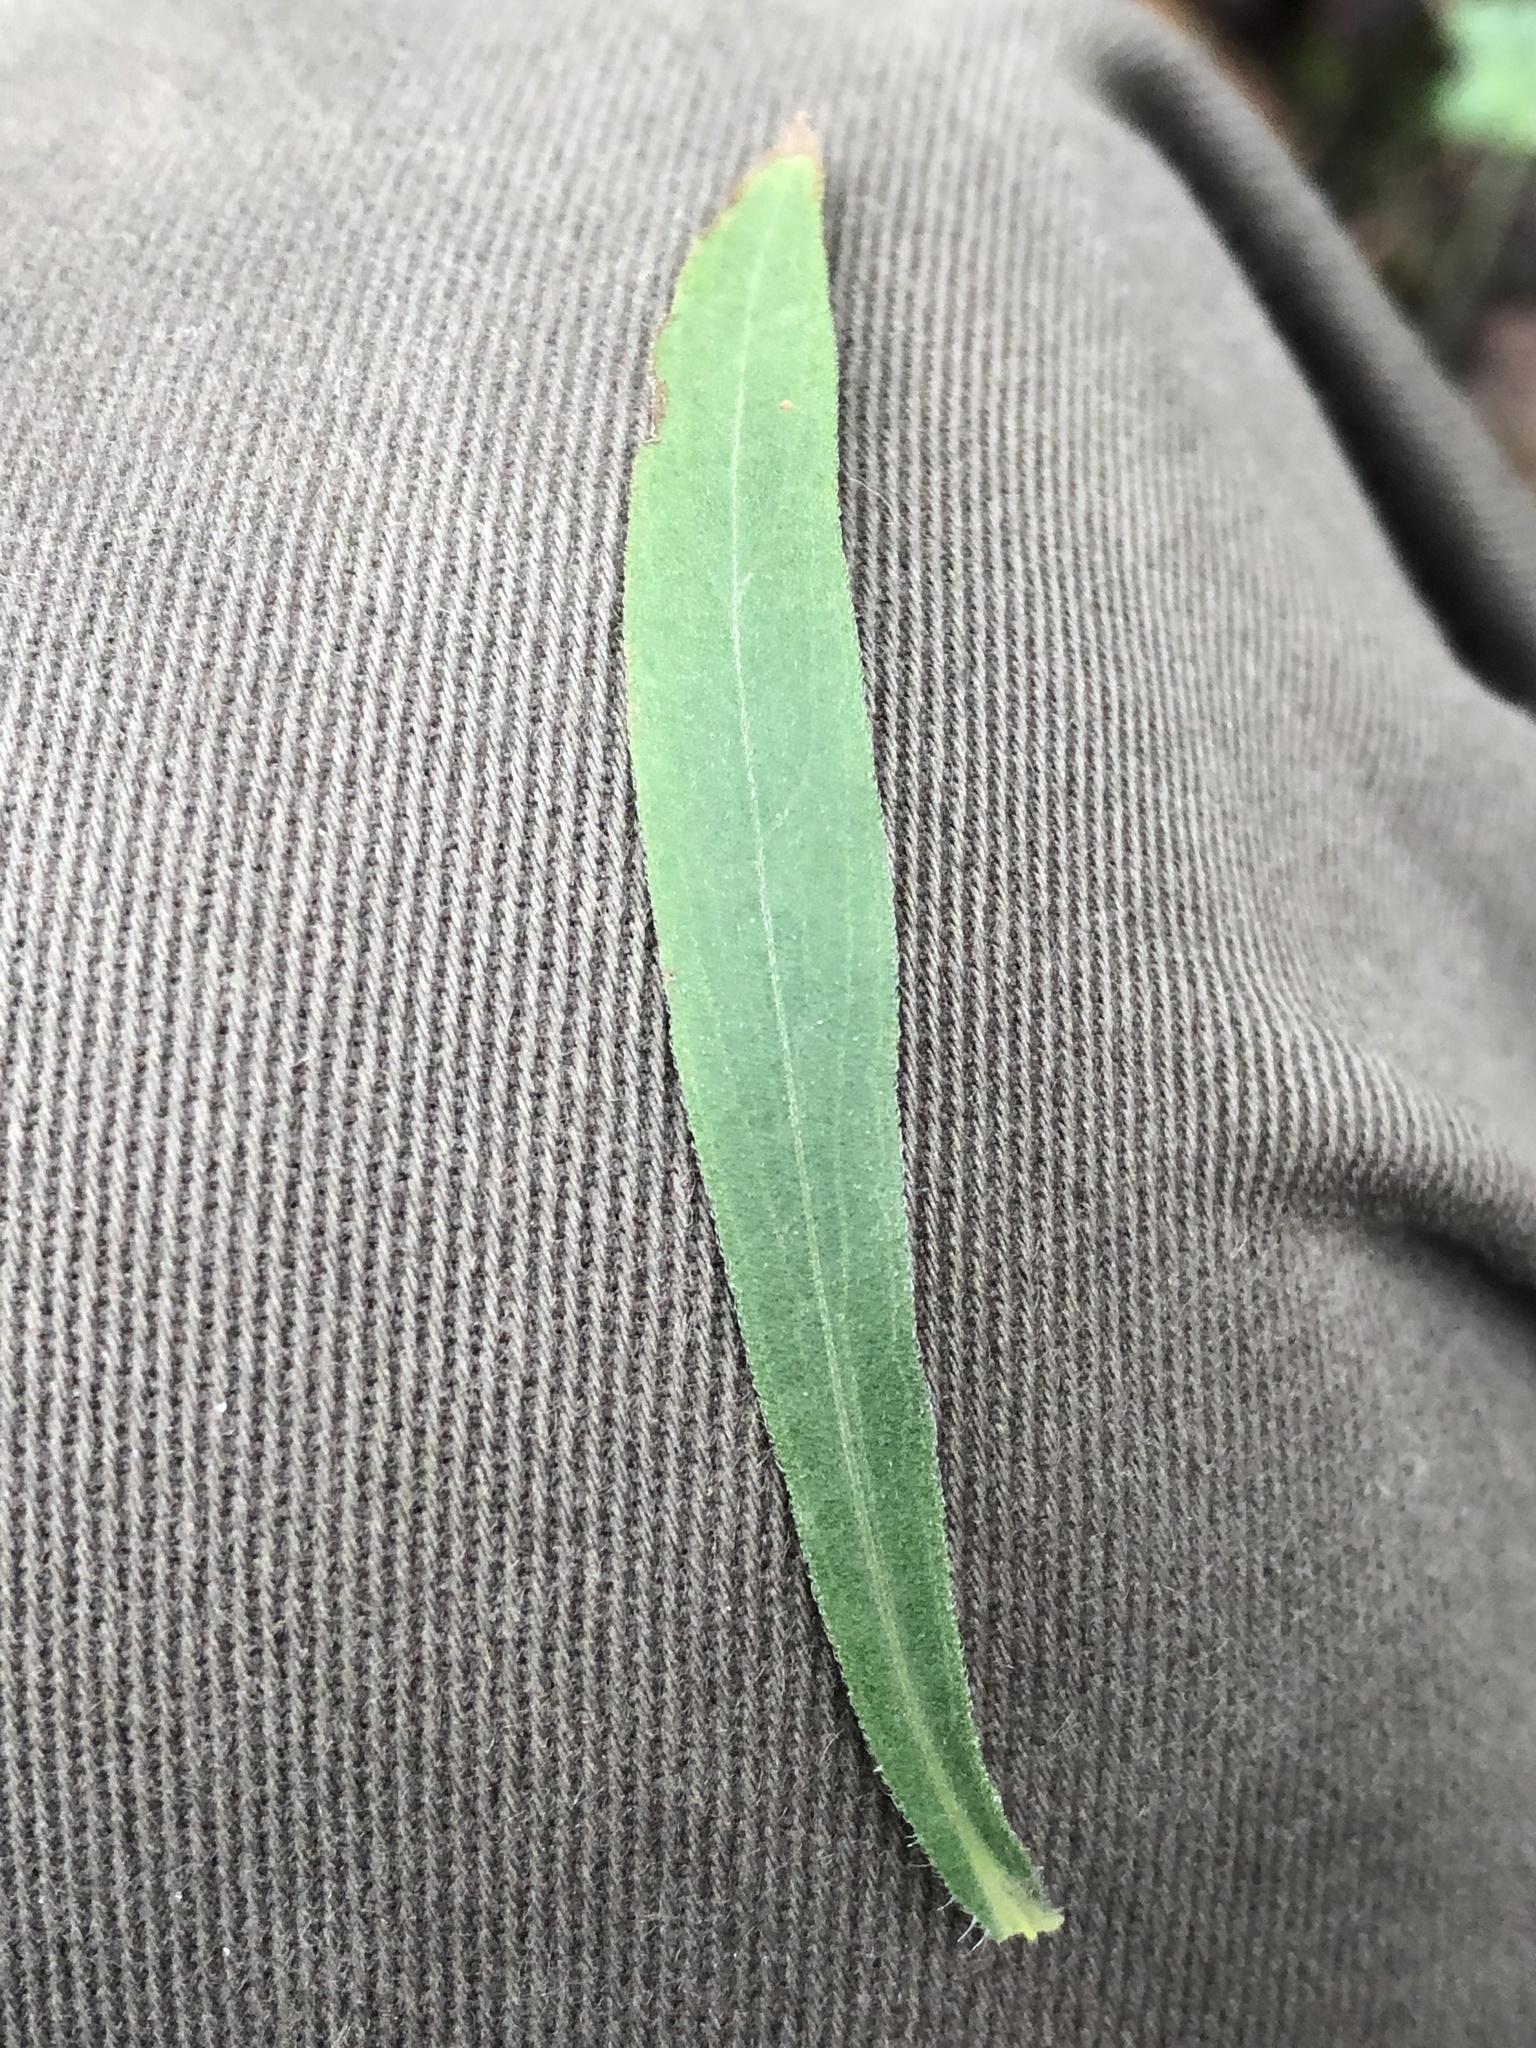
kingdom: Plantae
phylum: Tracheophyta
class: Magnoliopsida
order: Asterales
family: Asteraceae
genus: Erigeron
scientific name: Erigeron sumatrensis
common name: Daisy
